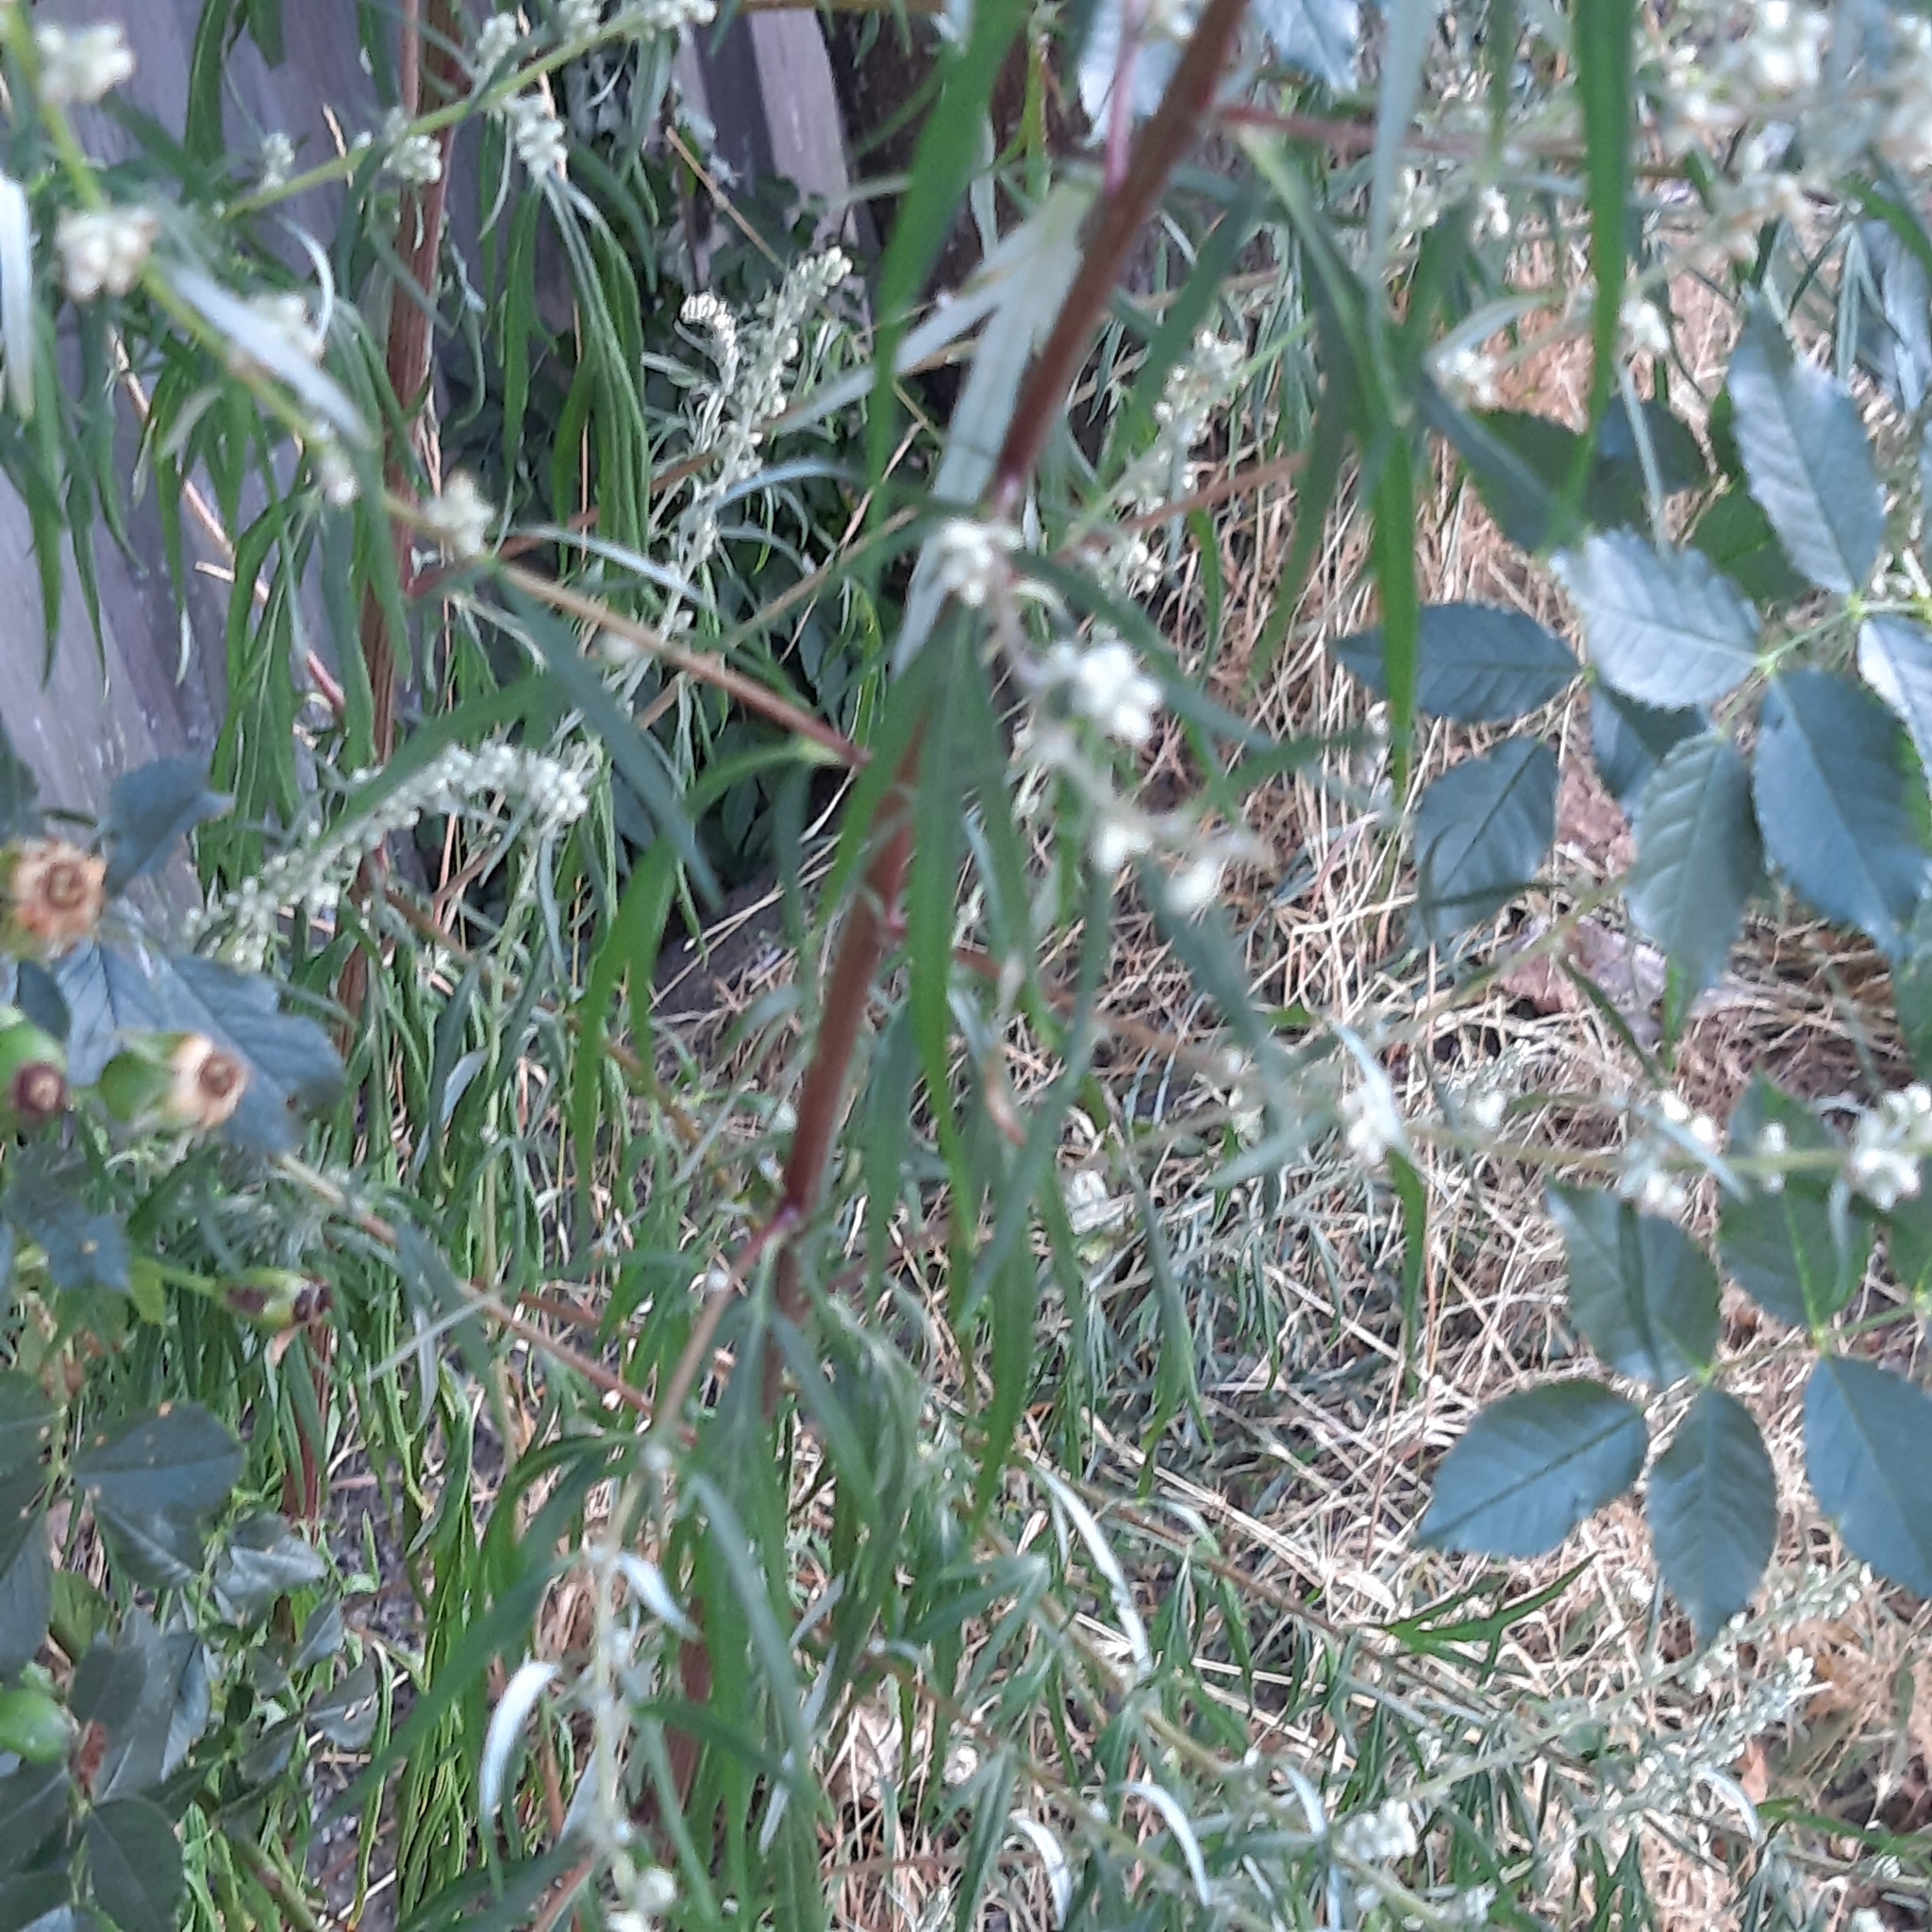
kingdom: Plantae
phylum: Tracheophyta
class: Magnoliopsida
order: Asterales
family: Asteraceae
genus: Artemisia
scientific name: Artemisia vulgaris
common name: Mugwort
